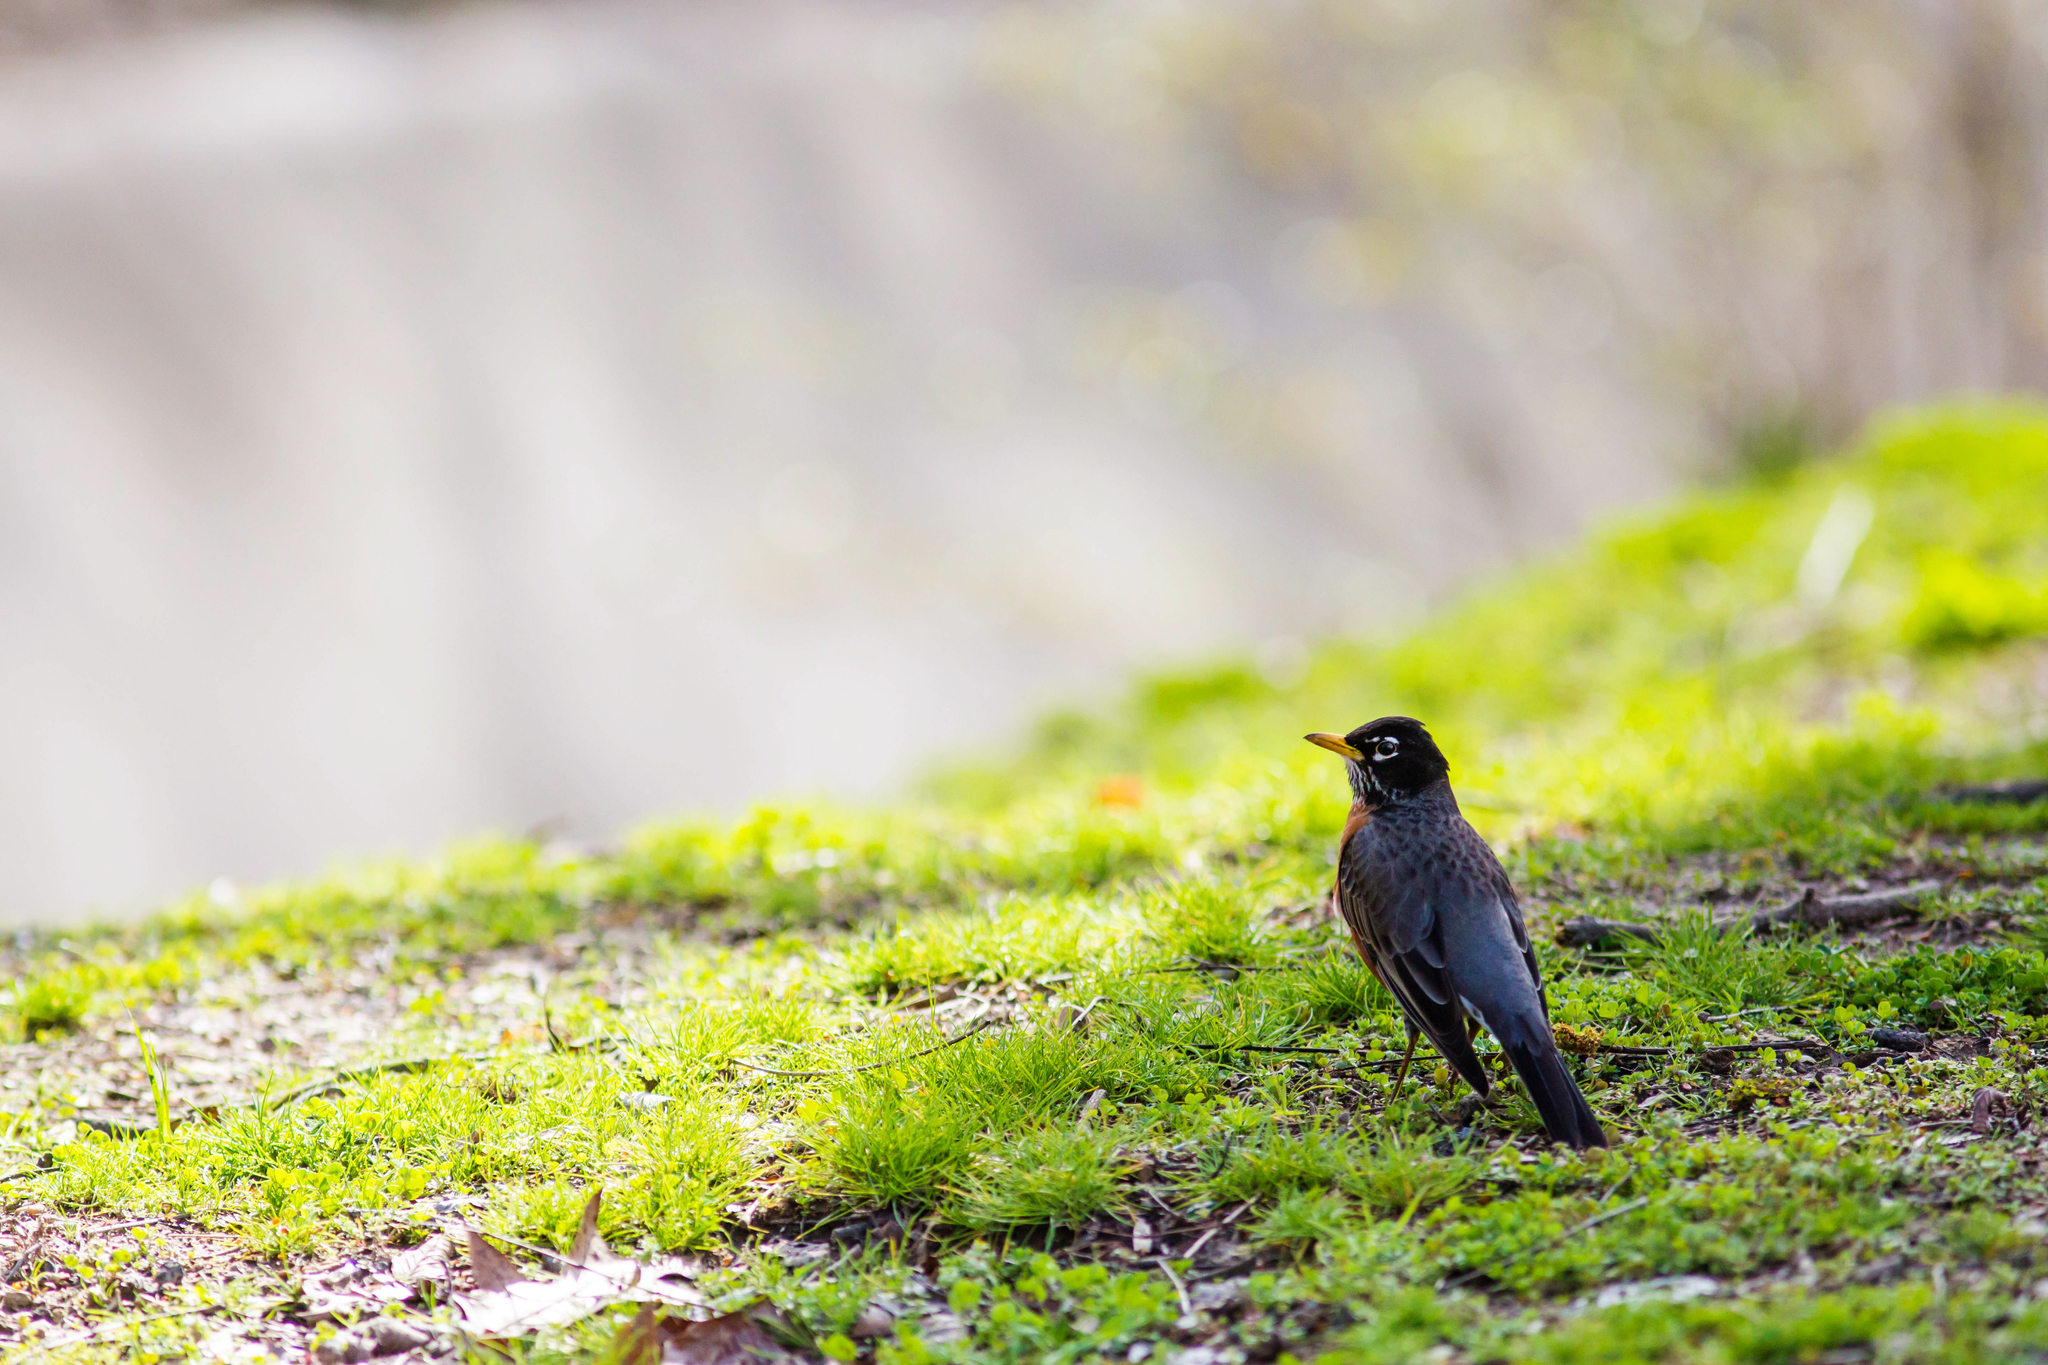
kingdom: Animalia
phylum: Chordata
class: Aves
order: Passeriformes
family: Turdidae
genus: Turdus
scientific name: Turdus migratorius
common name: American robin
